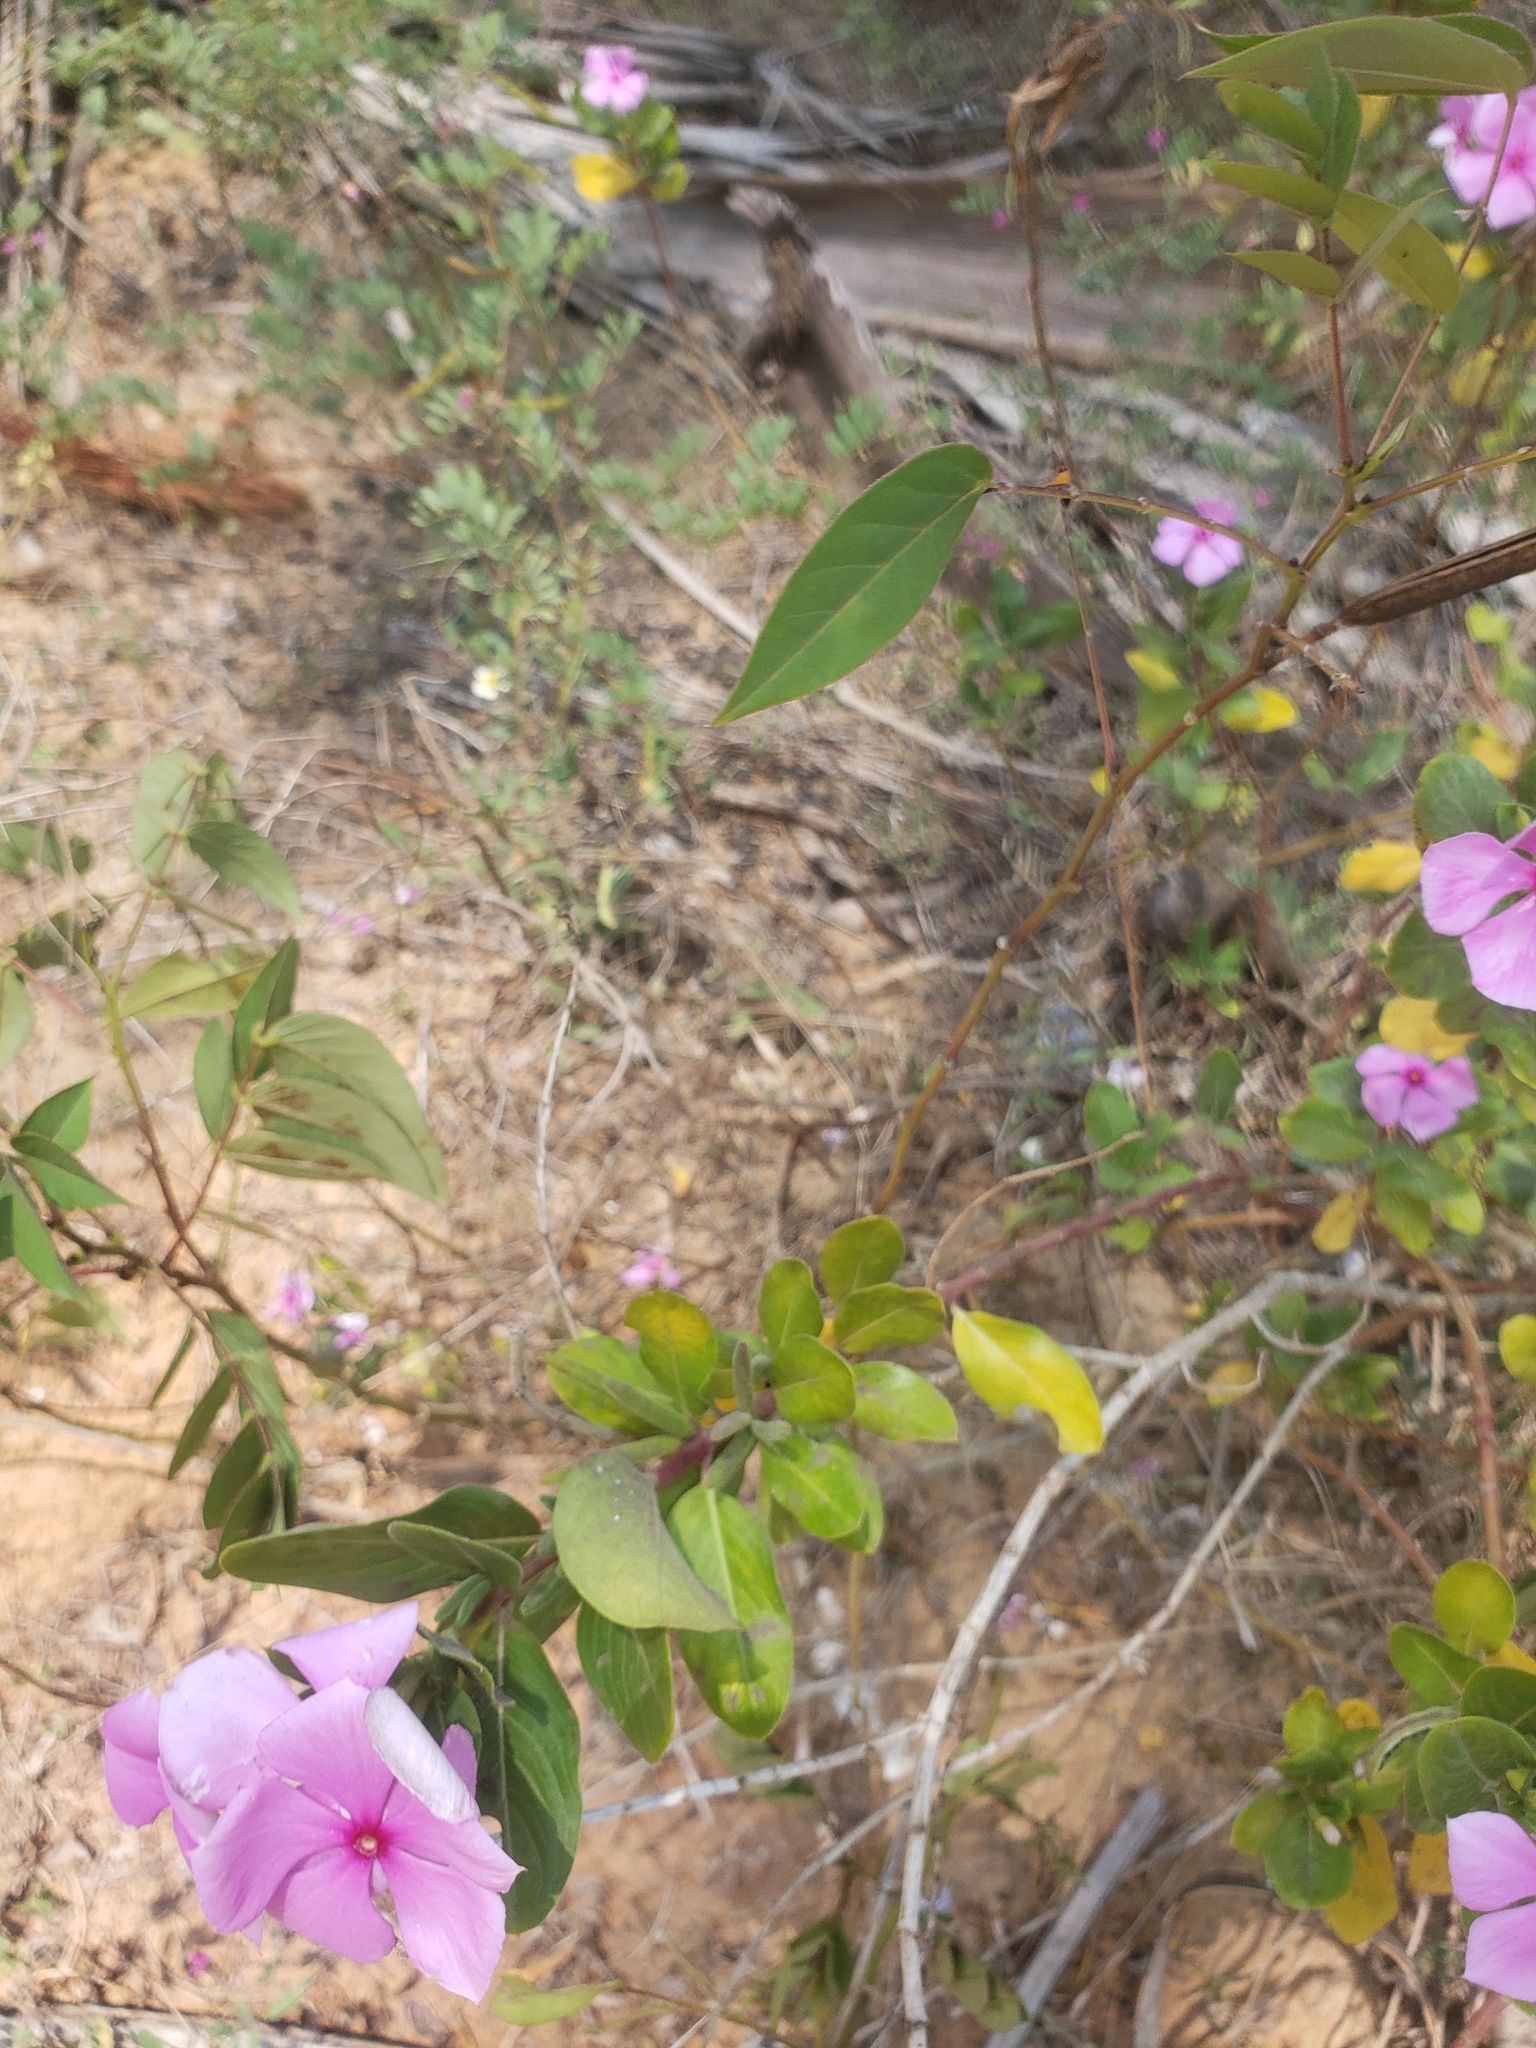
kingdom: Plantae
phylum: Tracheophyta
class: Magnoliopsida
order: Gentianales
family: Apocynaceae
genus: Catharanthus
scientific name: Catharanthus roseus
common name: Madagascar periwinkle
